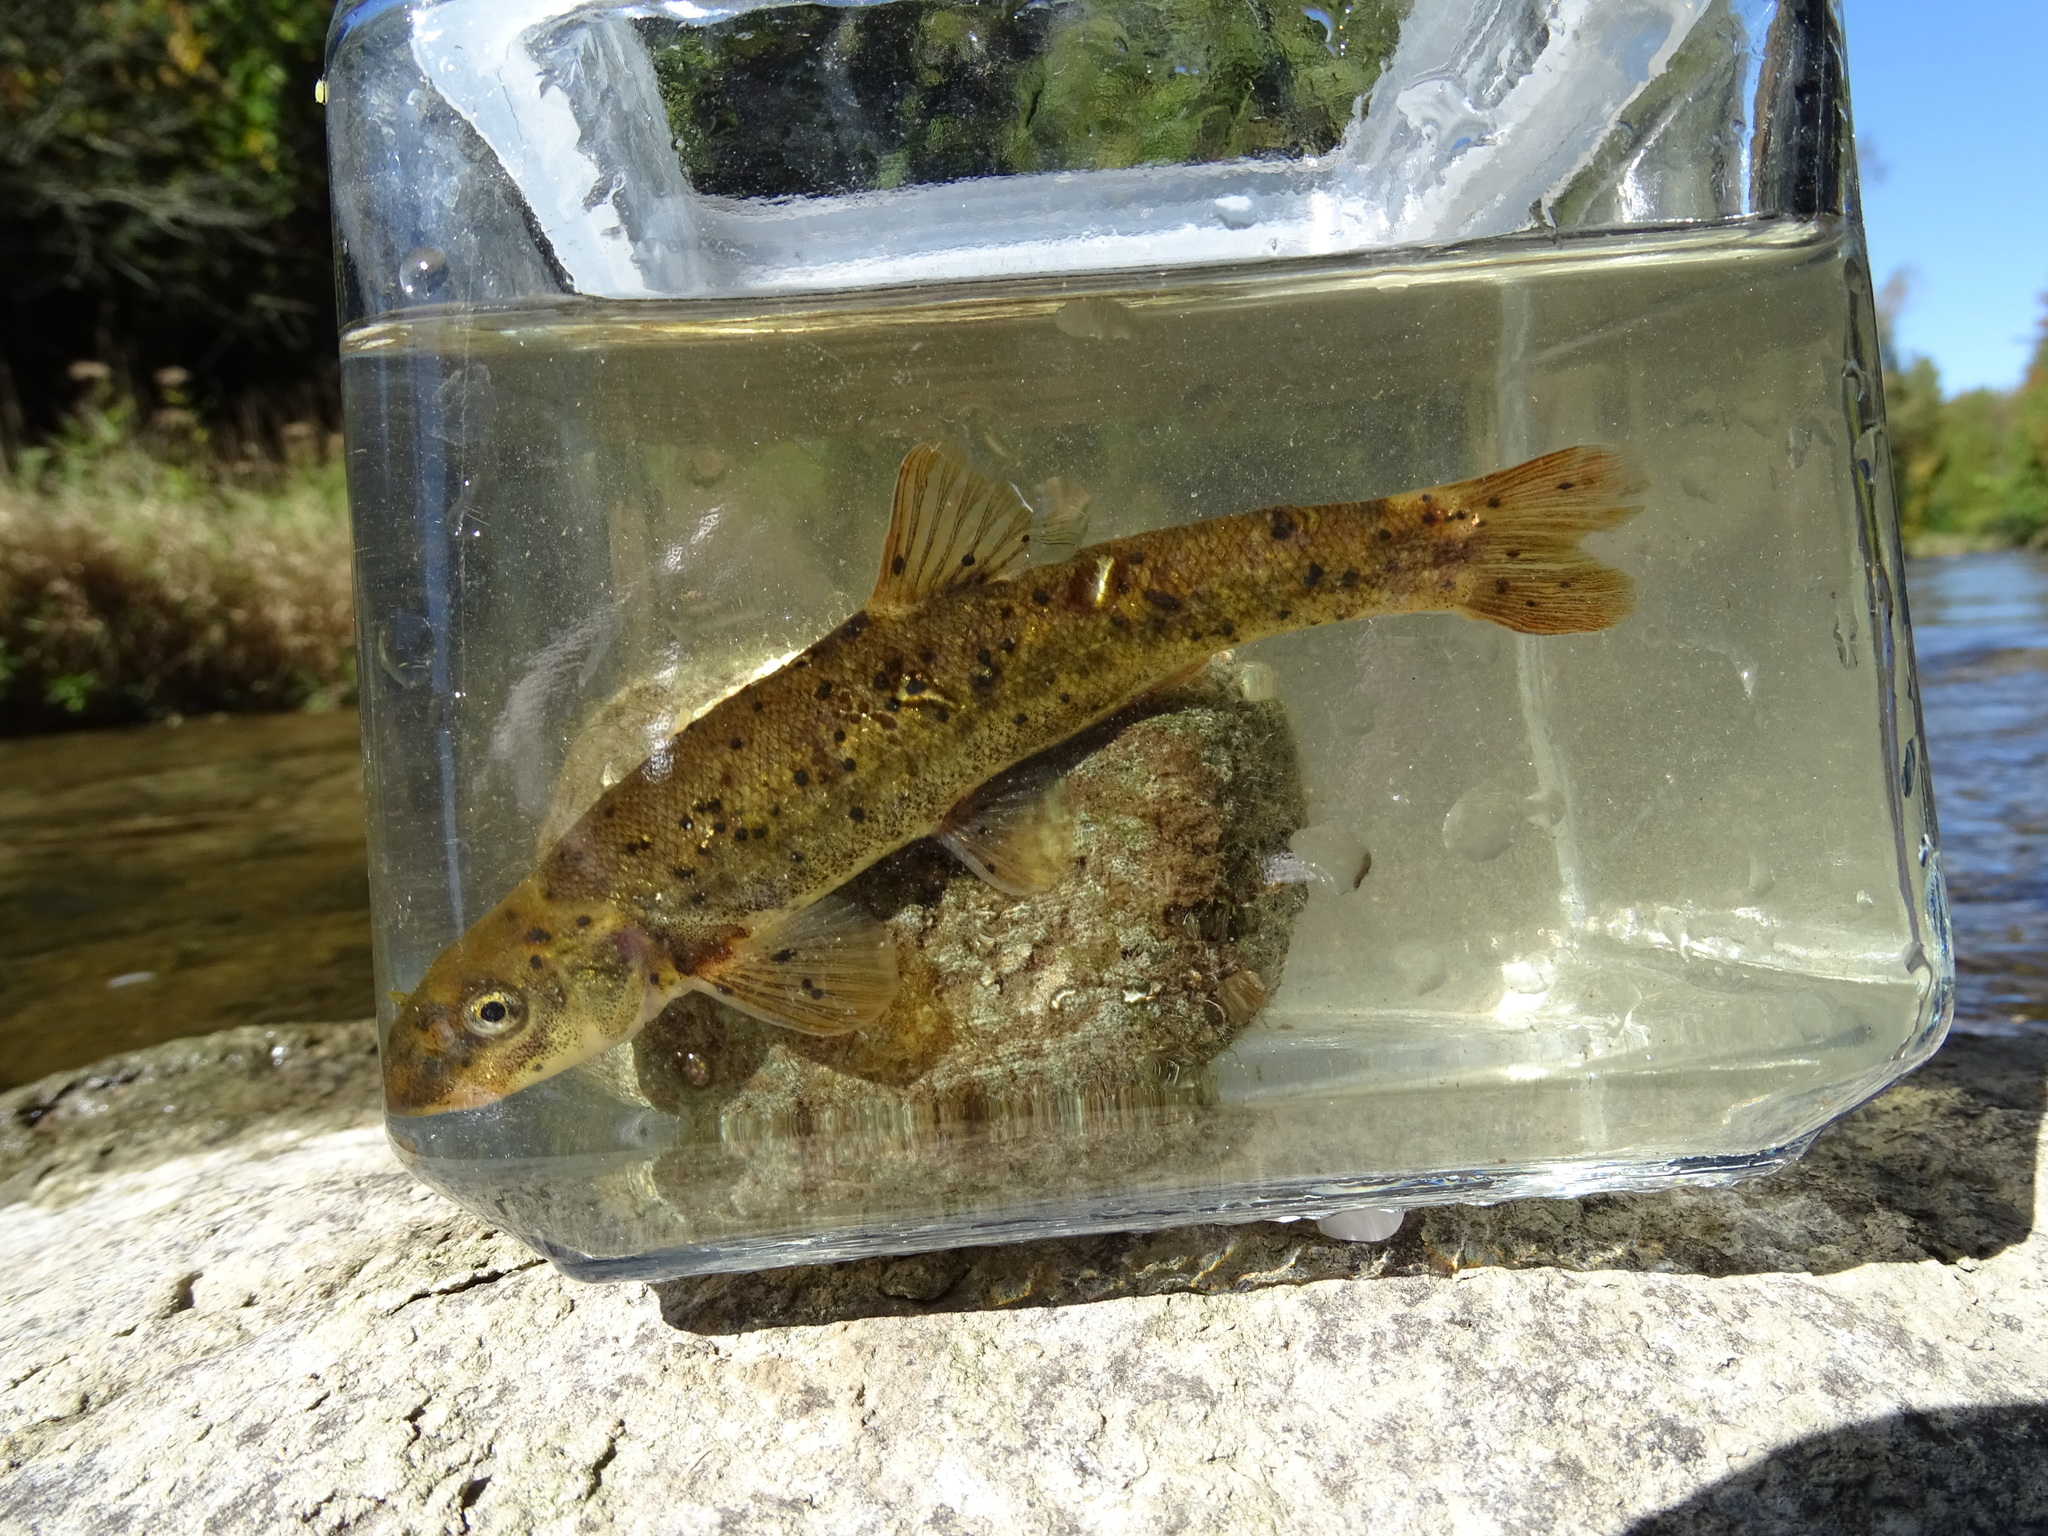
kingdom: Animalia
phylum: Chordata
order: Cypriniformes
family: Cyprinidae
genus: Rhinichthys
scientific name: Rhinichthys cataractae
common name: Longnose dace
